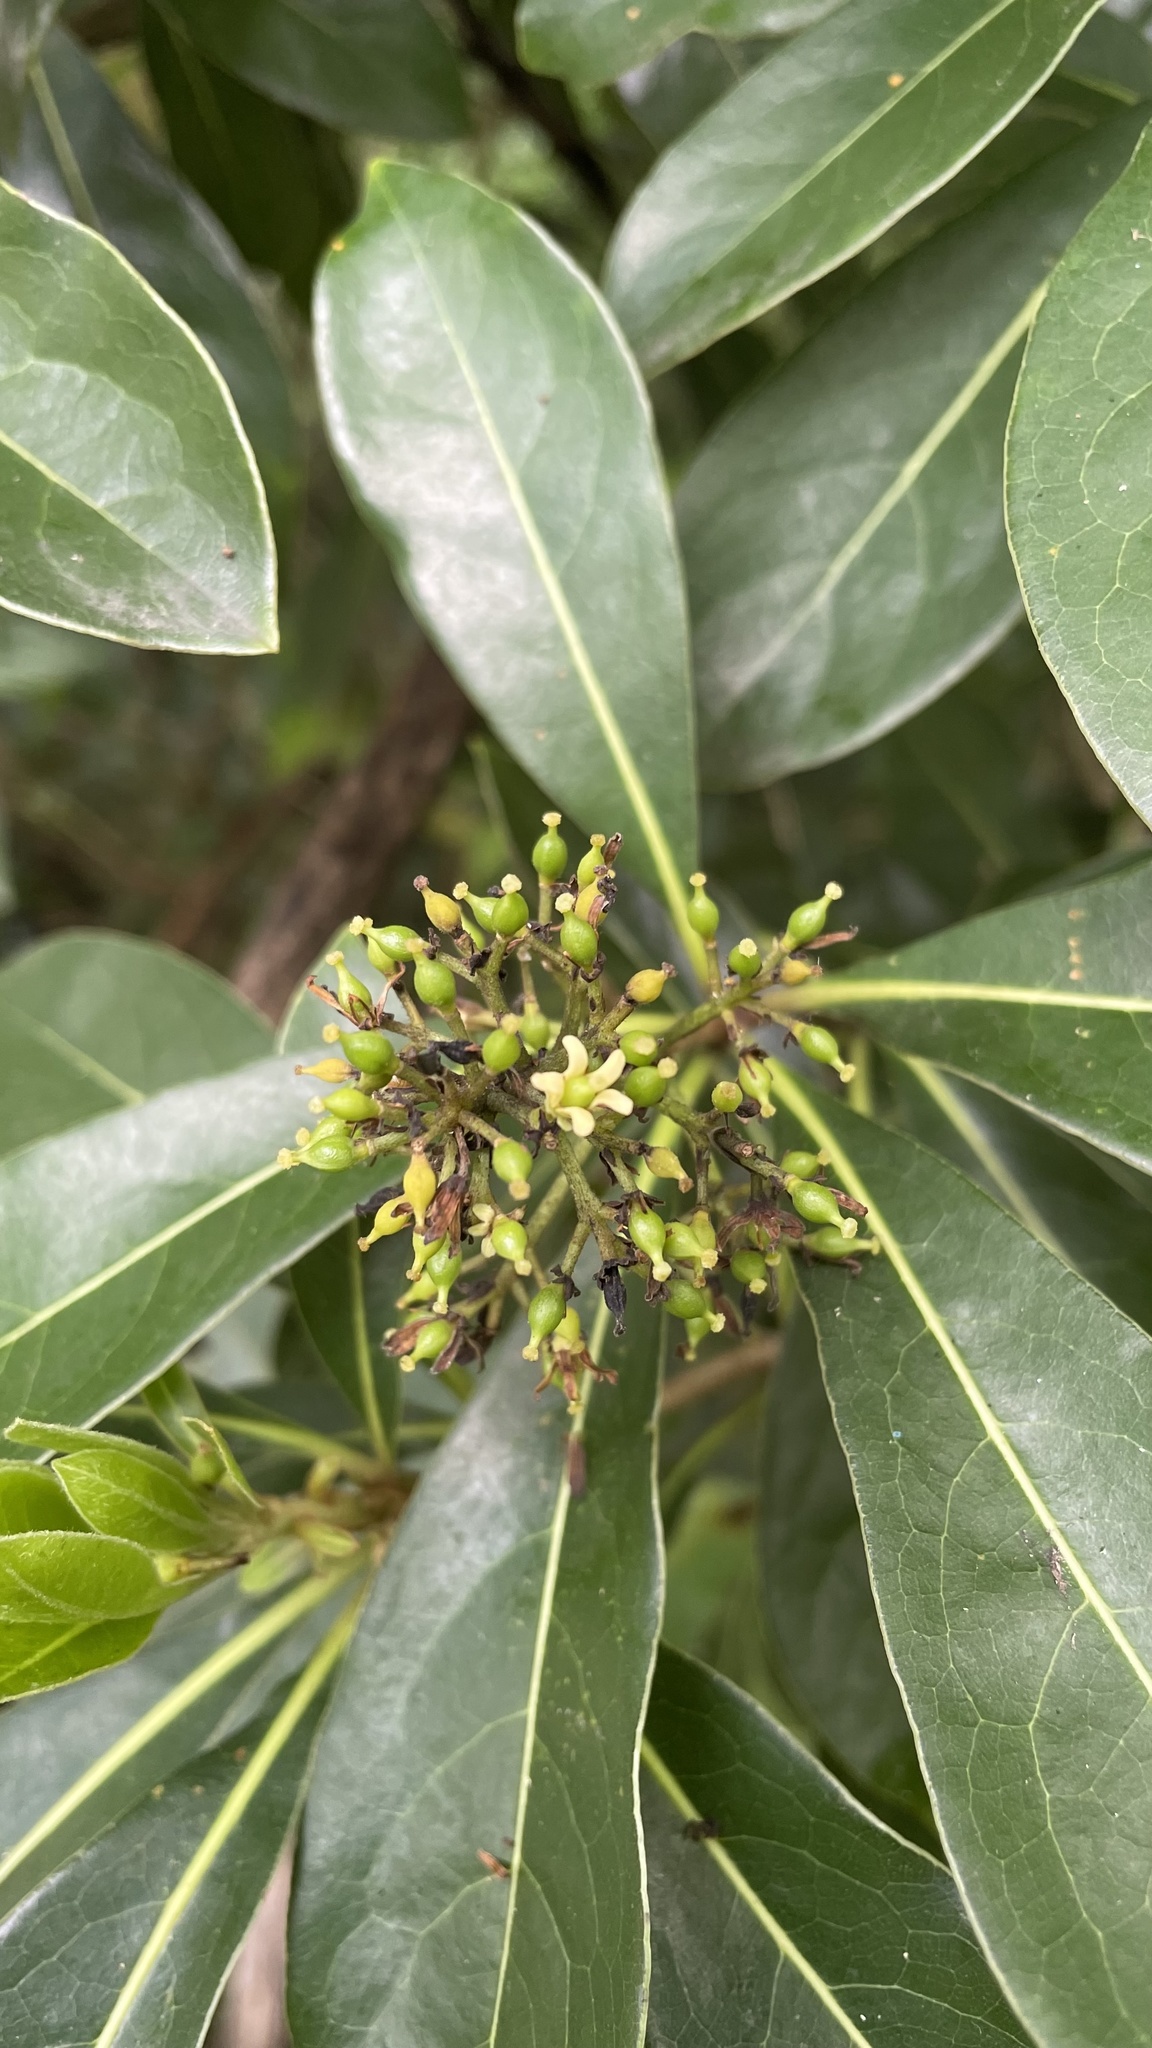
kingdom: Plantae
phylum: Tracheophyta
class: Magnoliopsida
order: Apiales
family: Pittosporaceae
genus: Pittosporum
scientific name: Pittosporum pentandrum
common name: Taiwanese cheesewood
